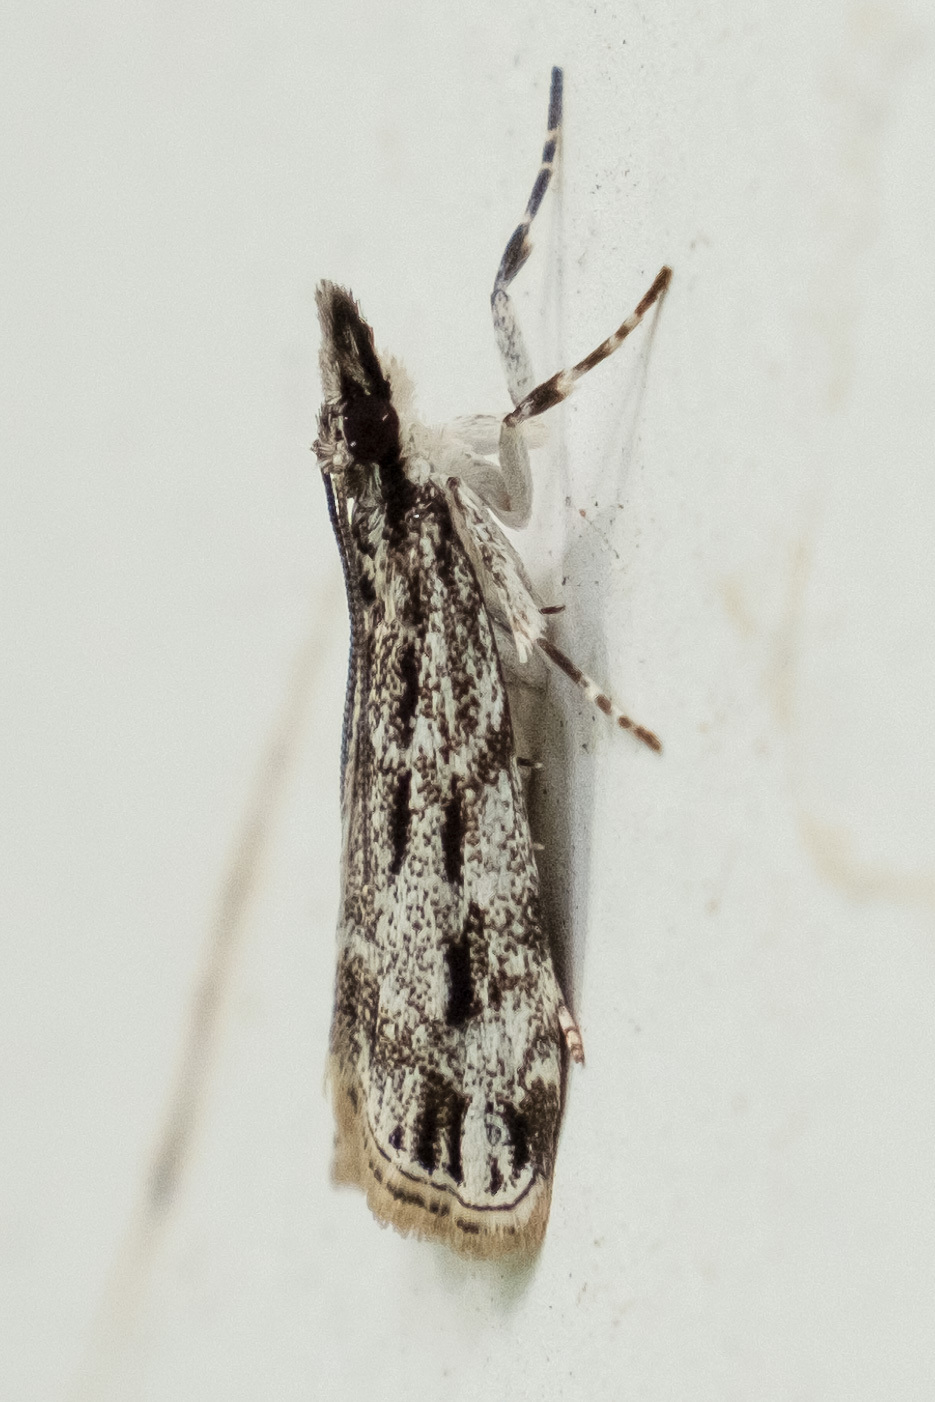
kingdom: Animalia
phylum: Arthropoda
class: Insecta
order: Lepidoptera
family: Crambidae
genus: Eudonia
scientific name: Eudonia strigalis
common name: Striped eudonia moth
